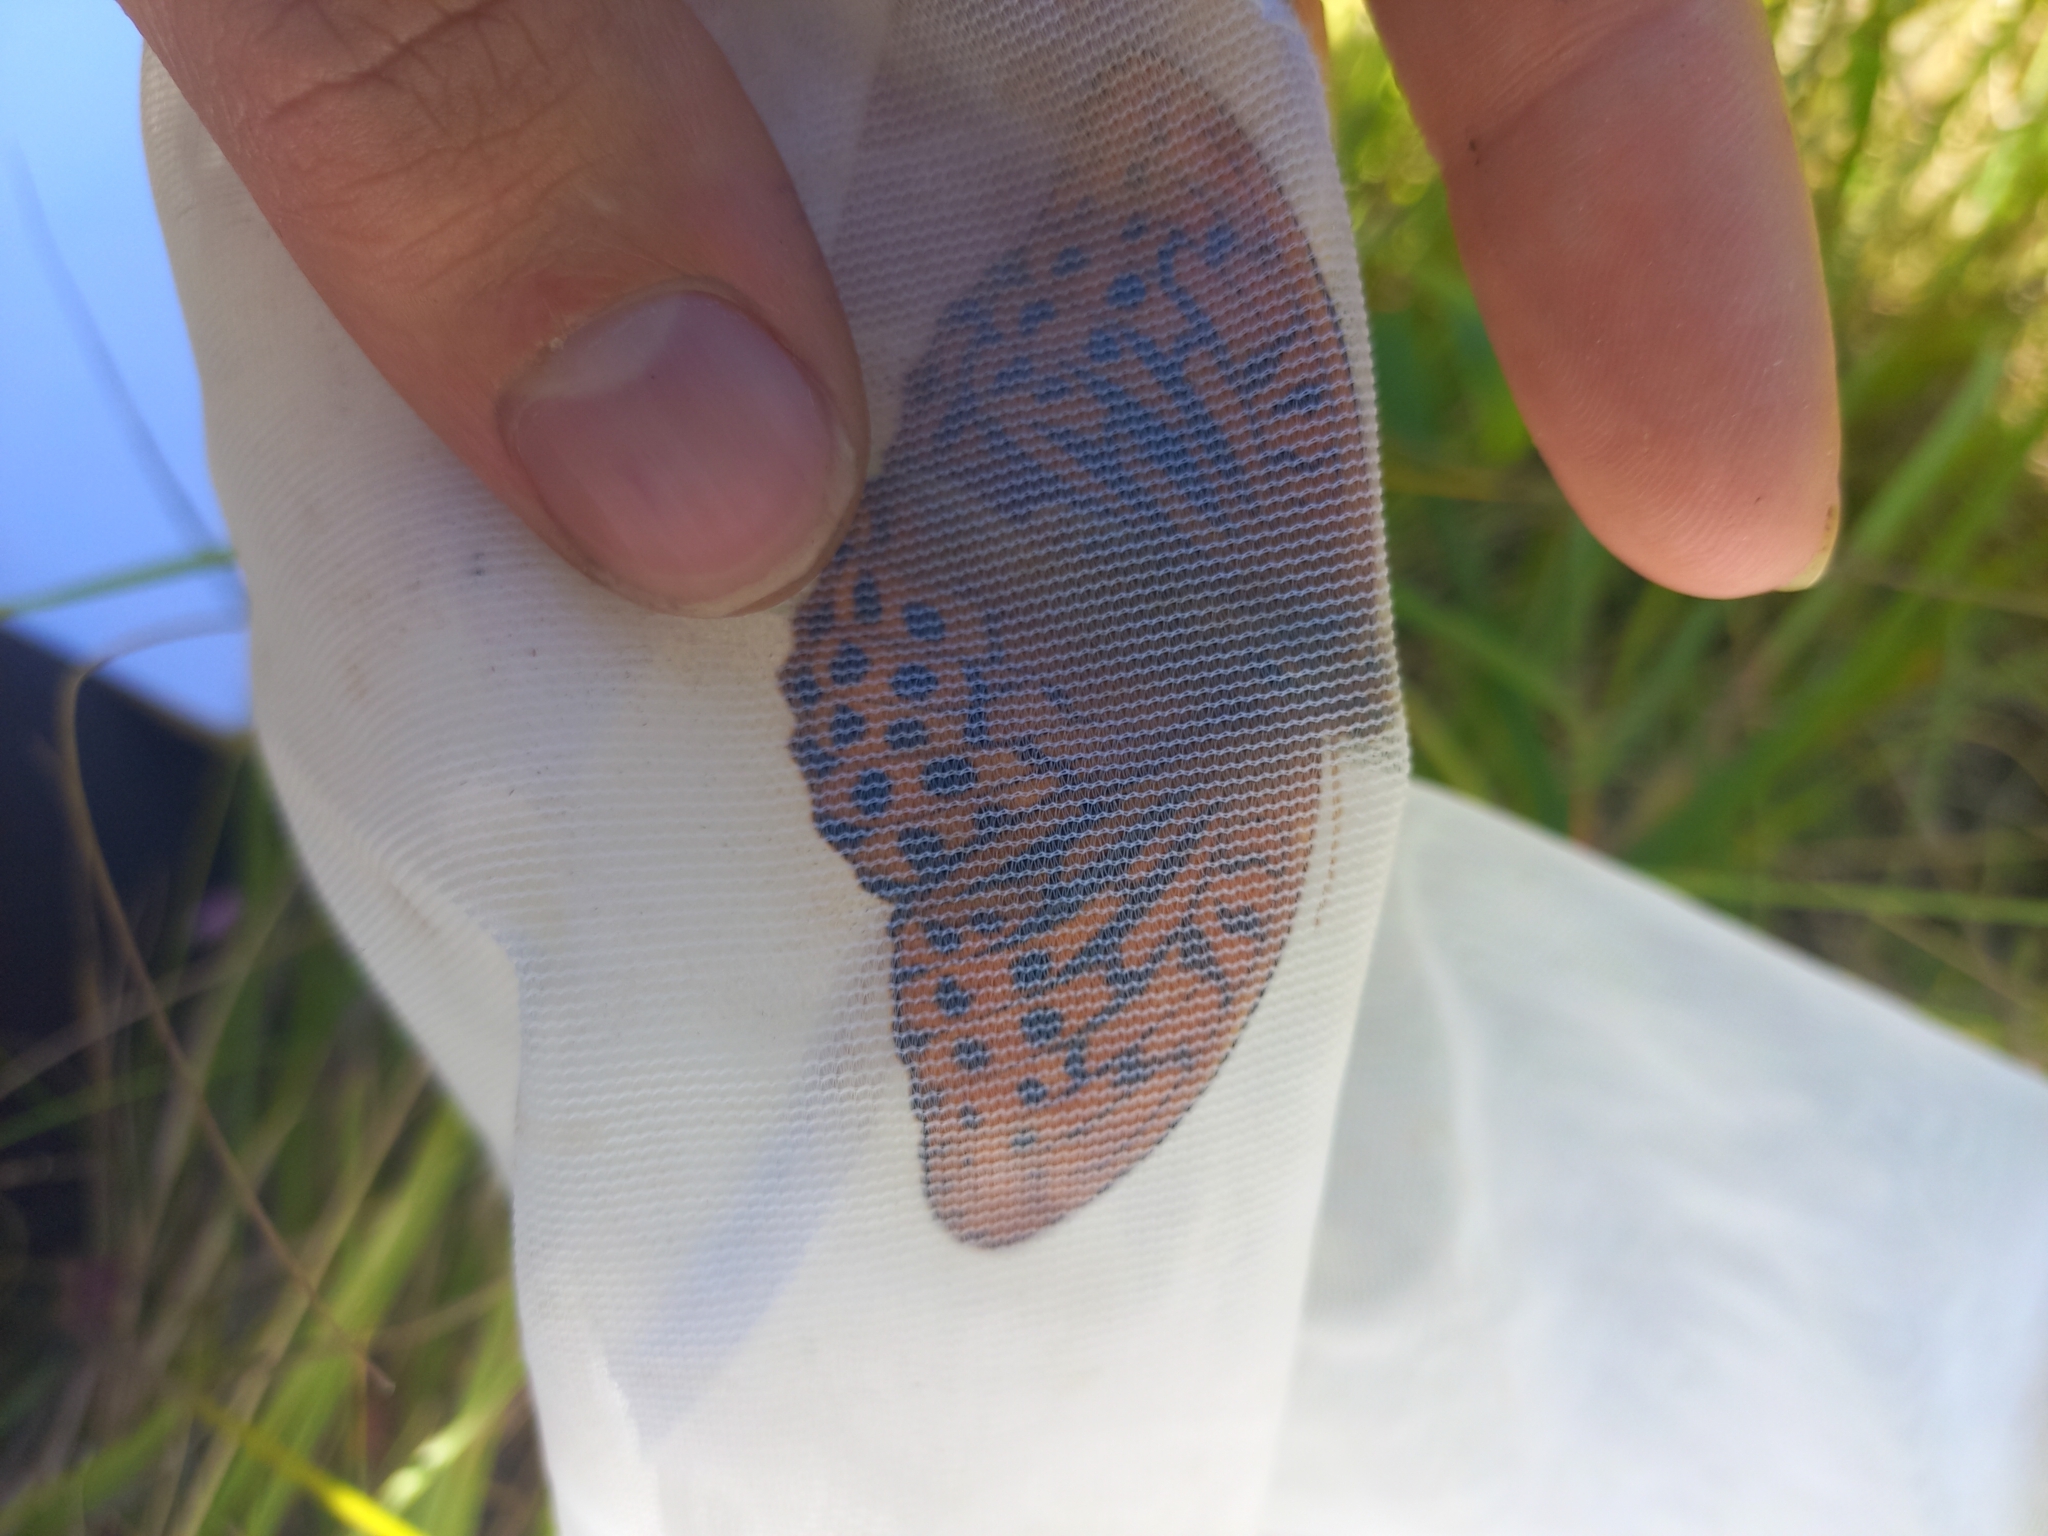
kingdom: Animalia
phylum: Arthropoda
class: Insecta
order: Lepidoptera
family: Nymphalidae
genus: Argynnis
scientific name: Argynnis paphia
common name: Silver-washed fritillary
